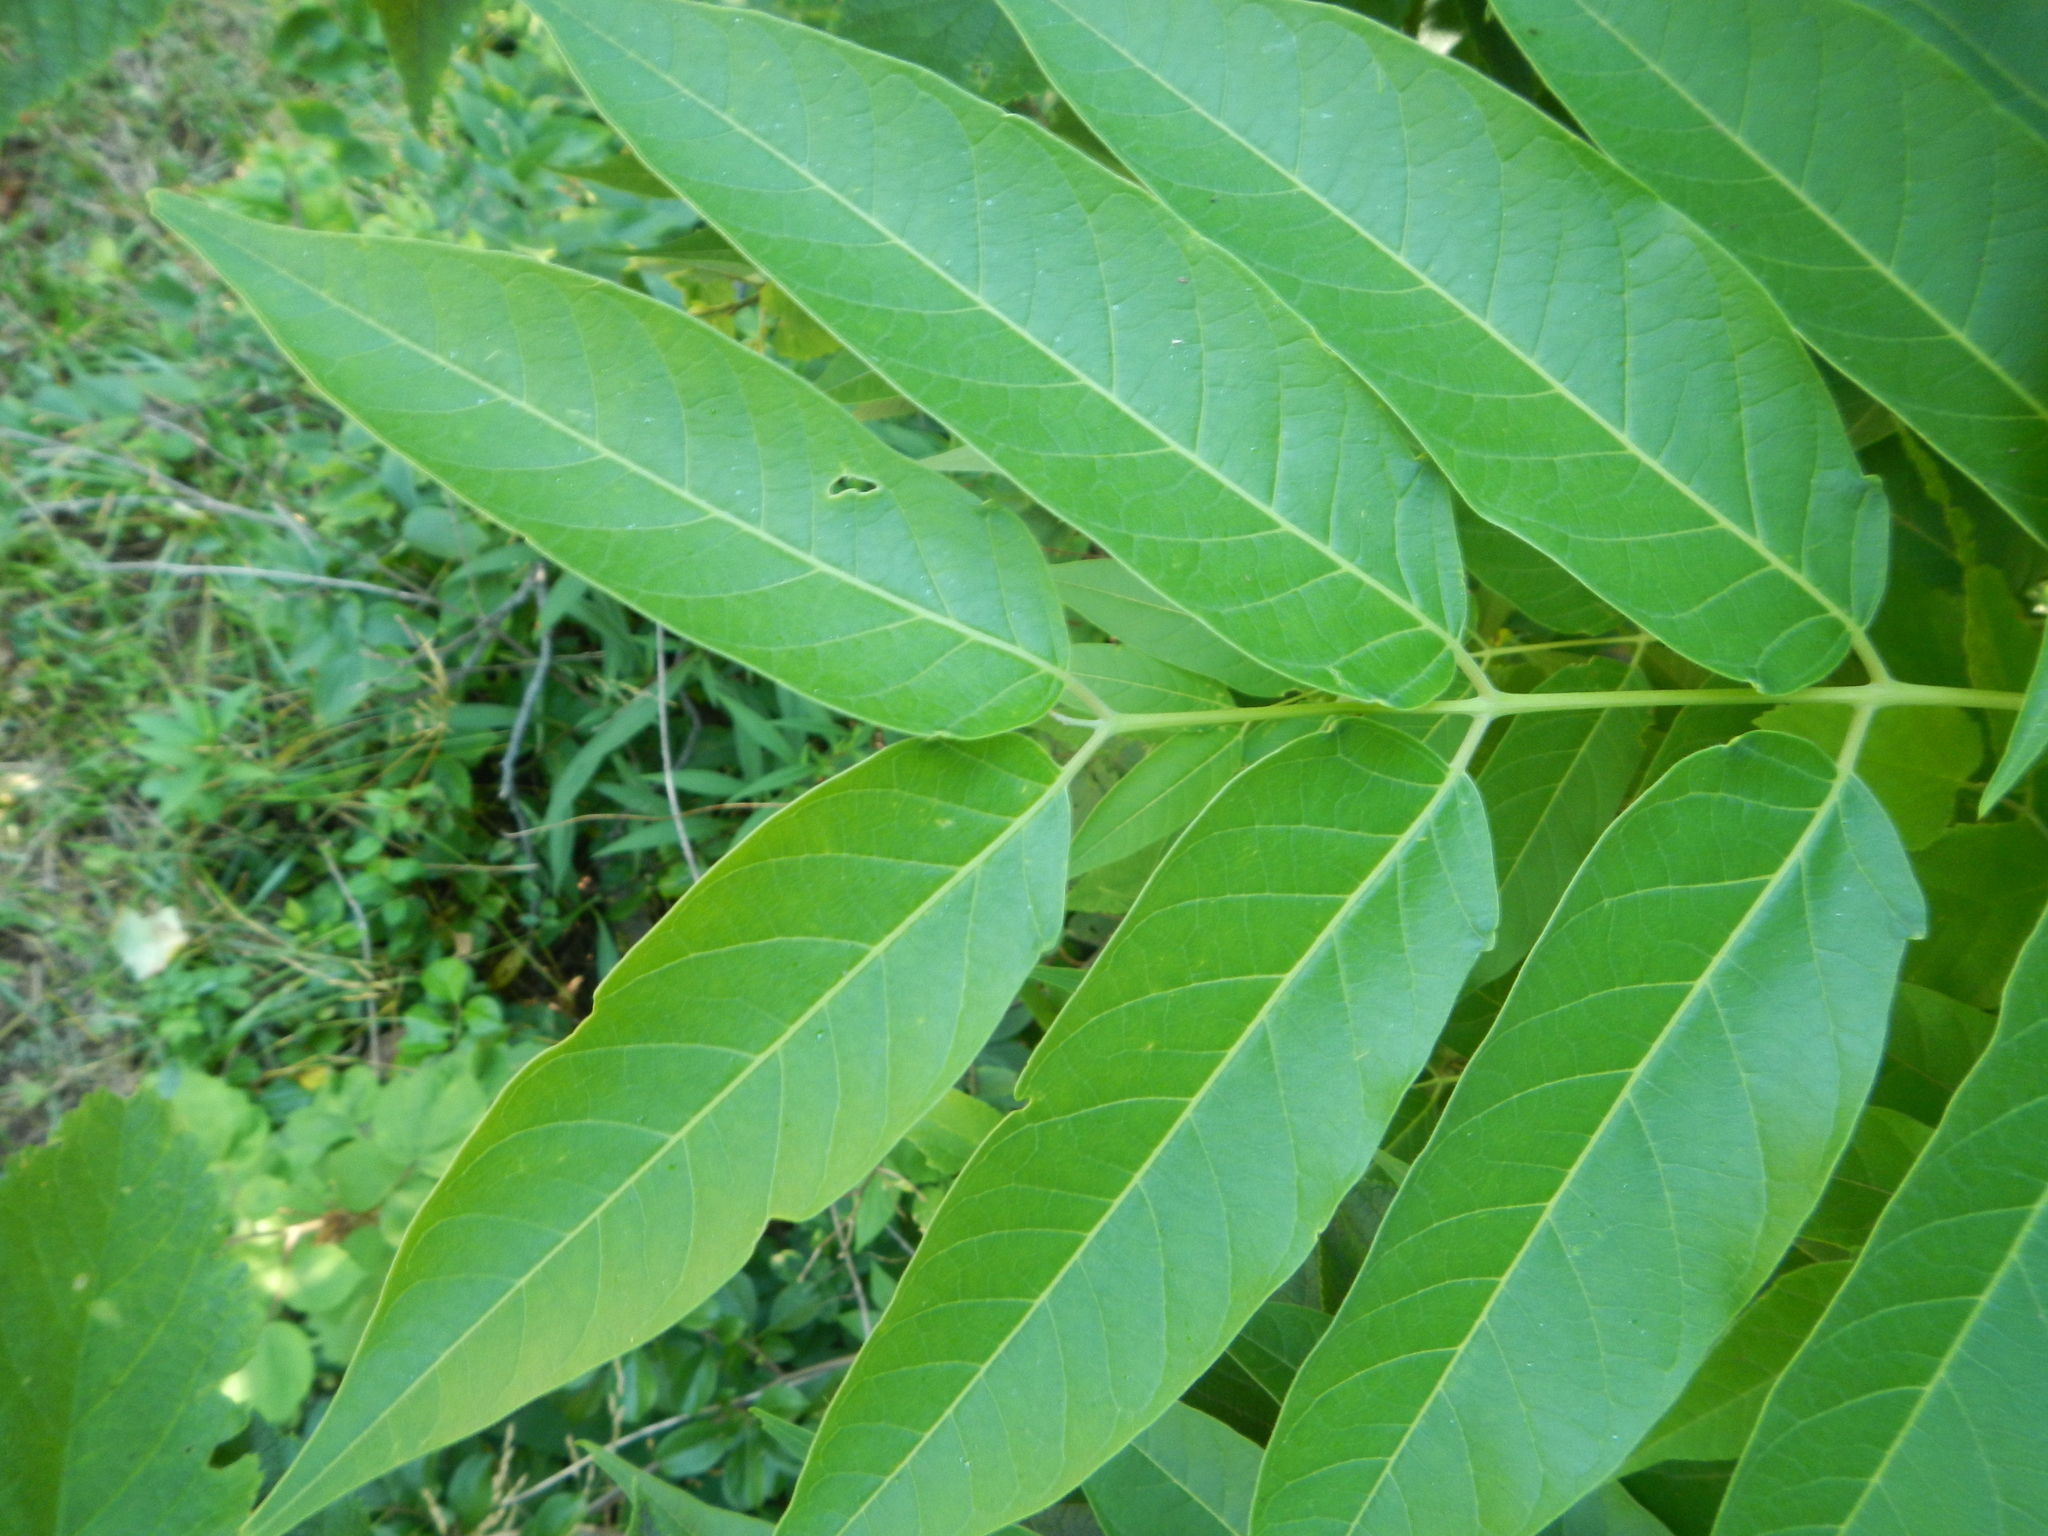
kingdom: Plantae
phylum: Tracheophyta
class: Magnoliopsida
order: Sapindales
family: Simaroubaceae
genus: Ailanthus
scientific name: Ailanthus altissima
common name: Tree-of-heaven
